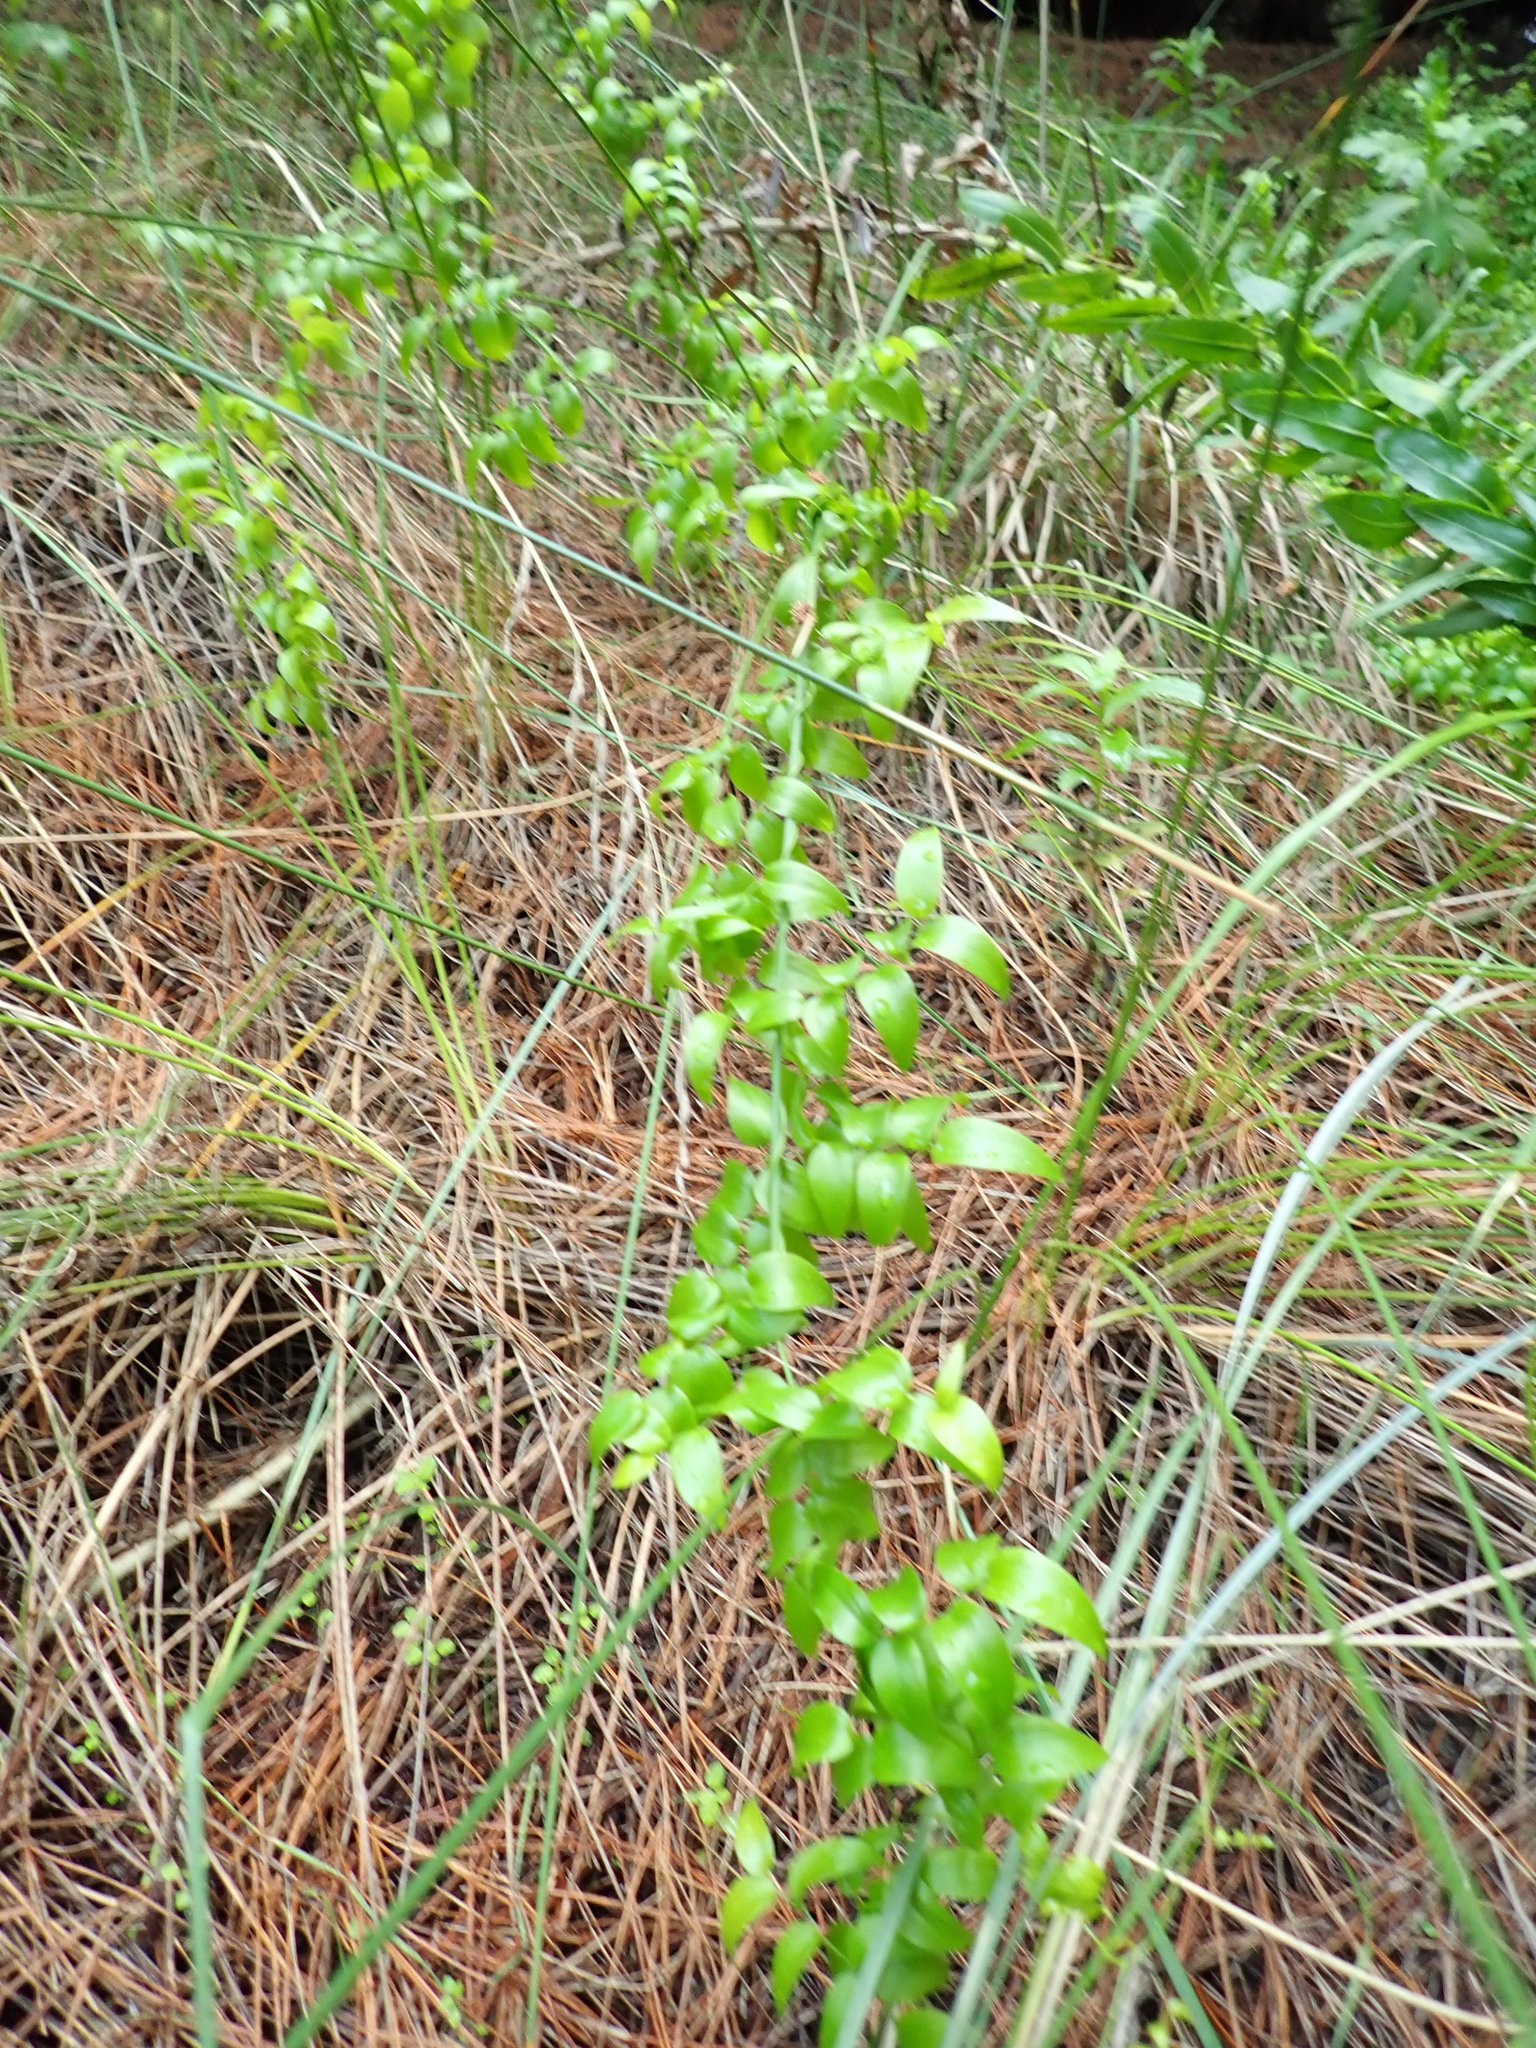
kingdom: Plantae
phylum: Tracheophyta
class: Liliopsida
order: Asparagales
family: Asparagaceae
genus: Asparagus
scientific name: Asparagus asparagoides
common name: African asparagus fern
